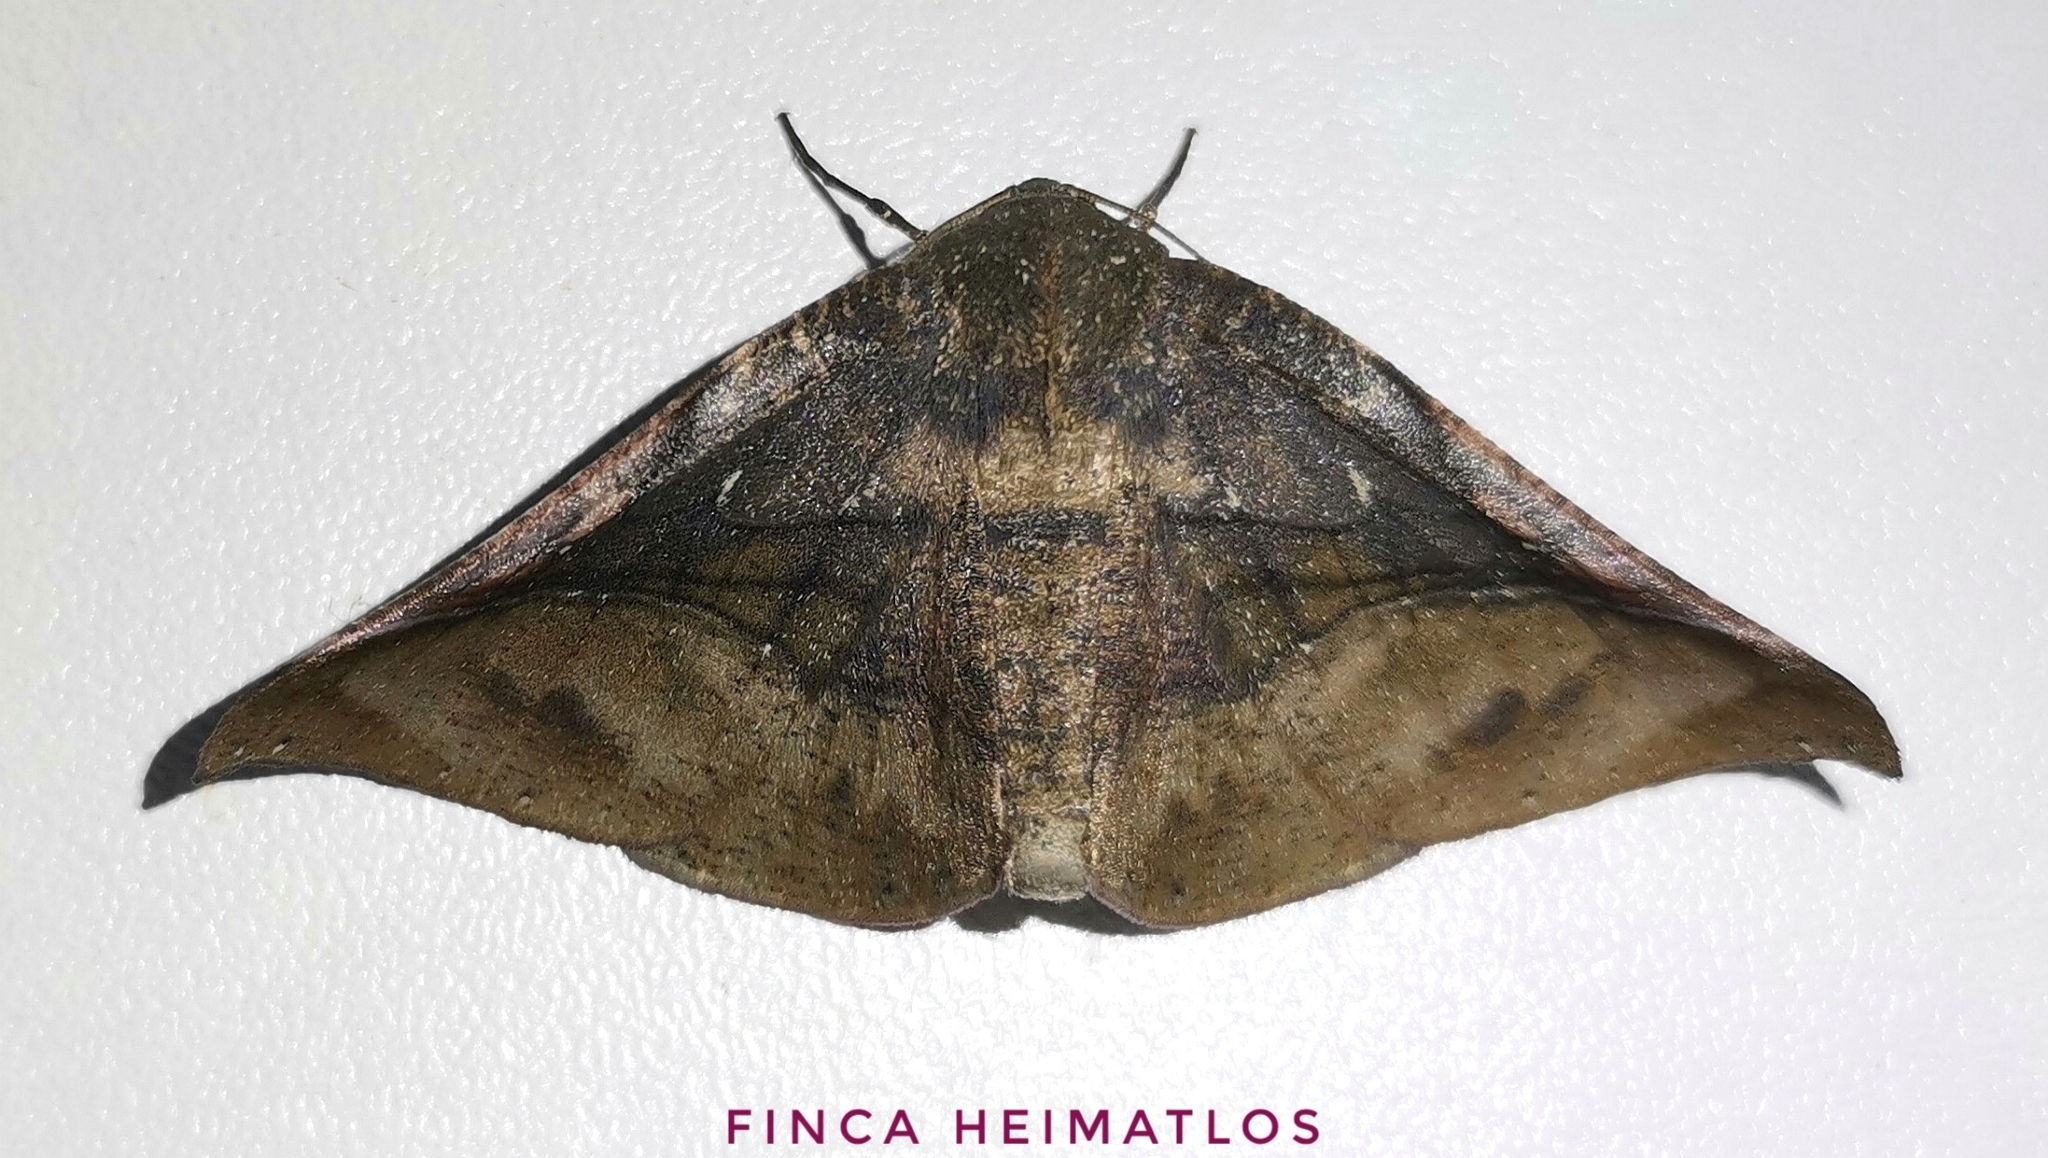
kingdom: Animalia
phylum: Arthropoda
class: Insecta
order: Lepidoptera
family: Geometridae
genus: Pero
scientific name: Pero exquisita
